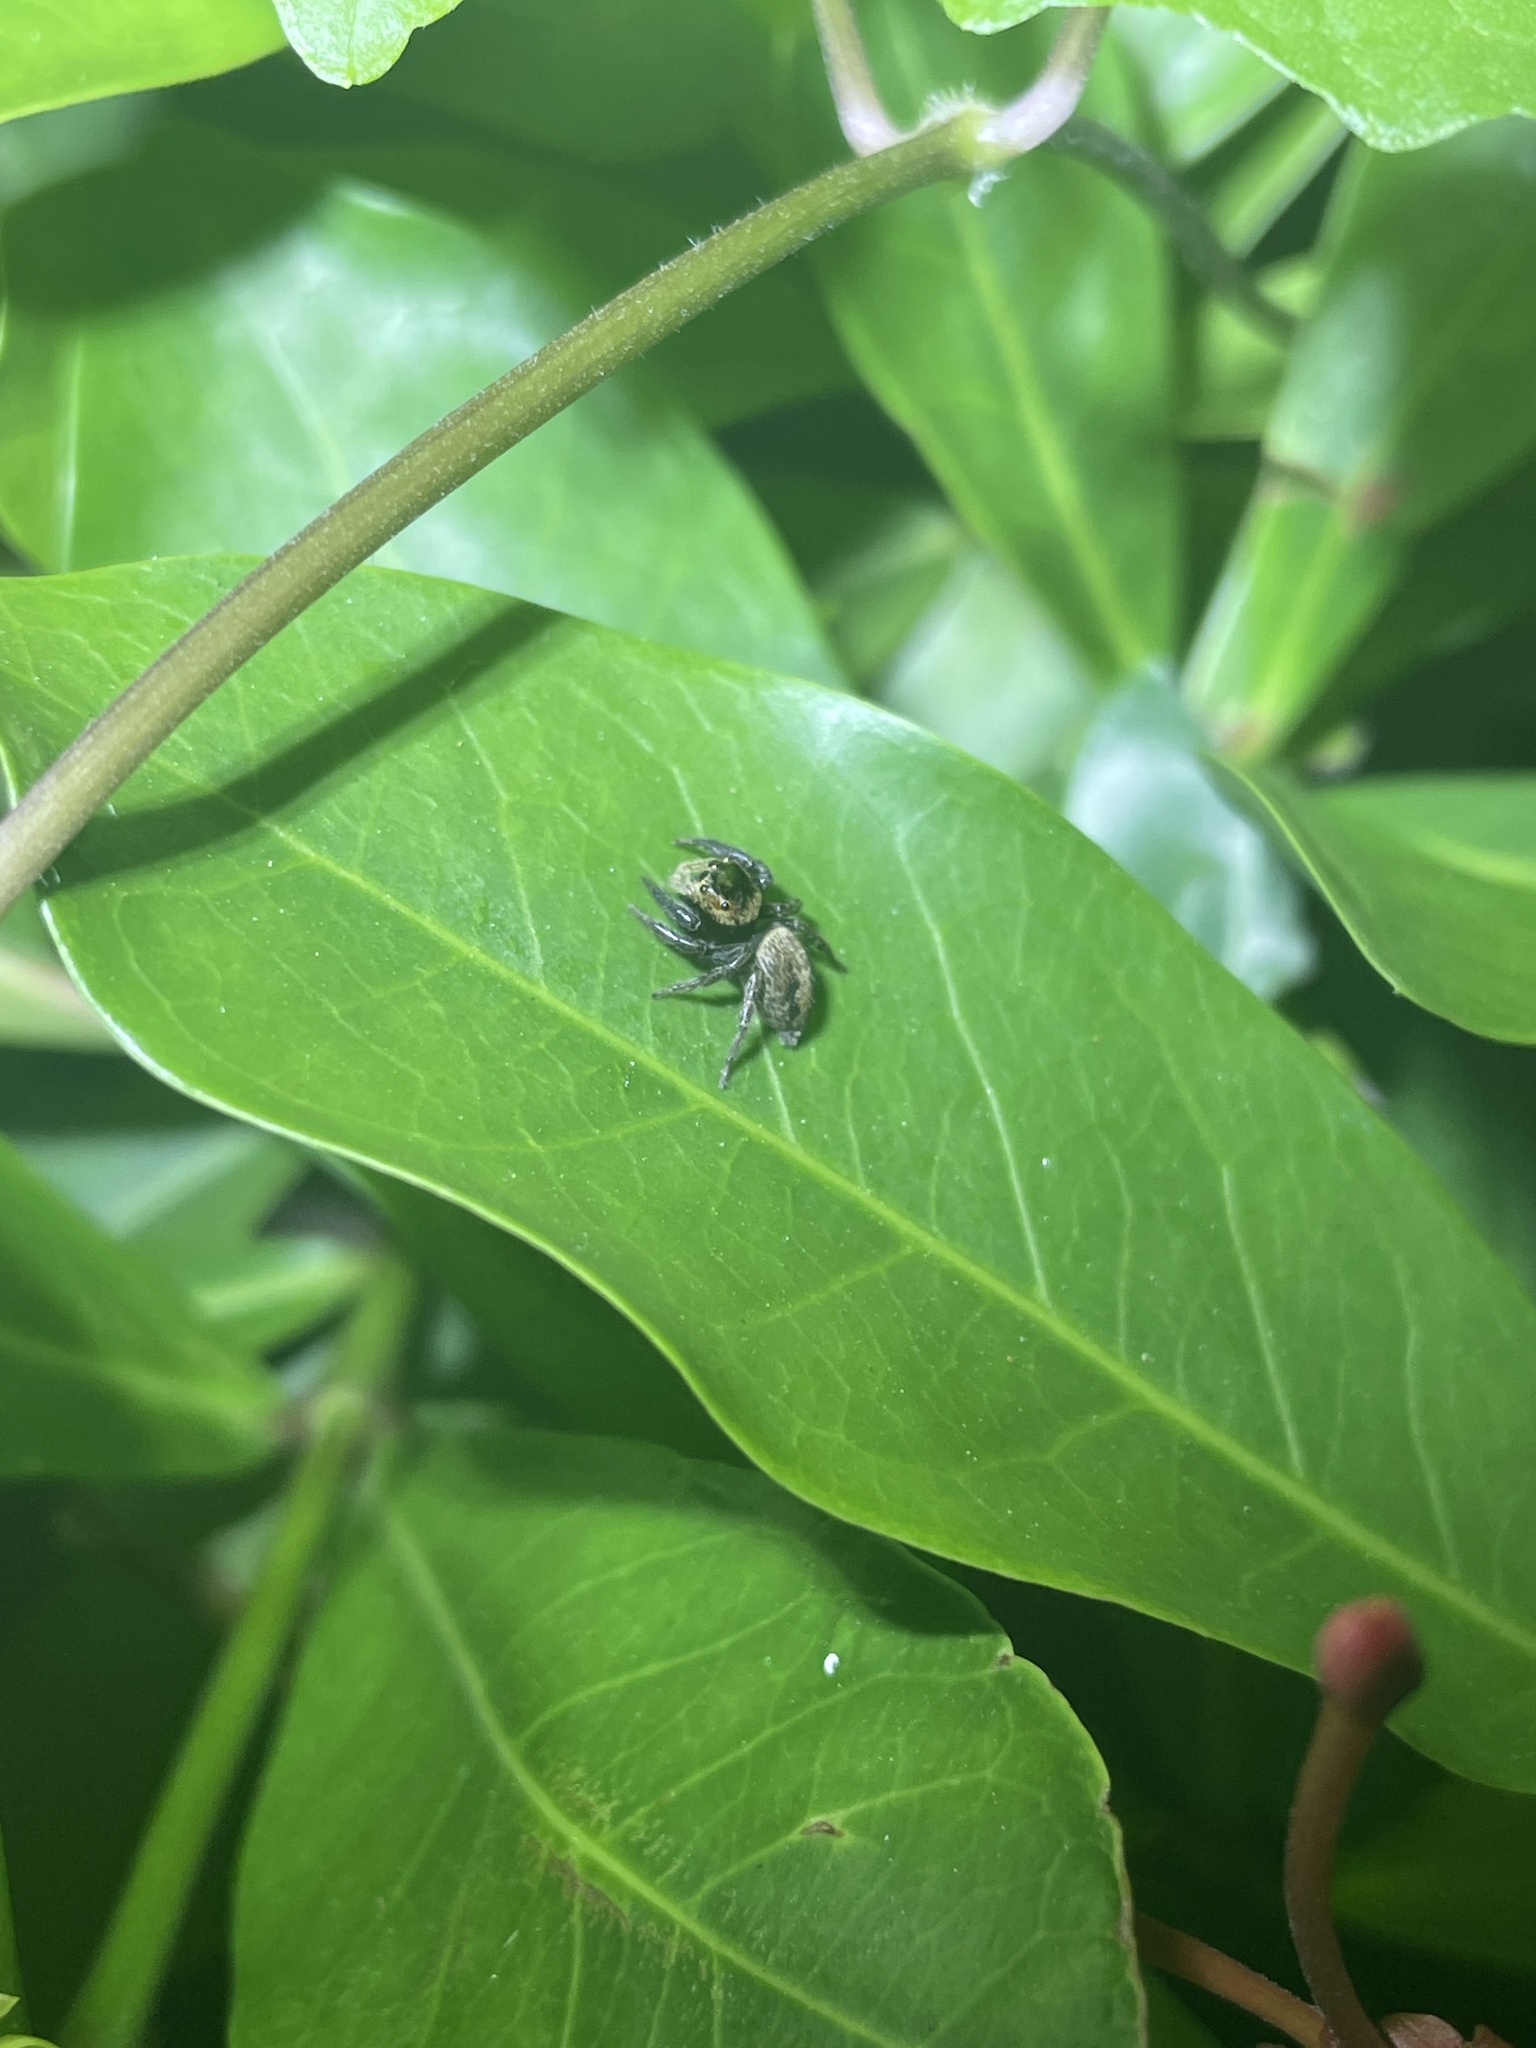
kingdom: Animalia
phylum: Arthropoda
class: Arachnida
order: Araneae
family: Salticidae
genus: Hasarius
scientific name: Hasarius adansoni
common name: Jumping spider
